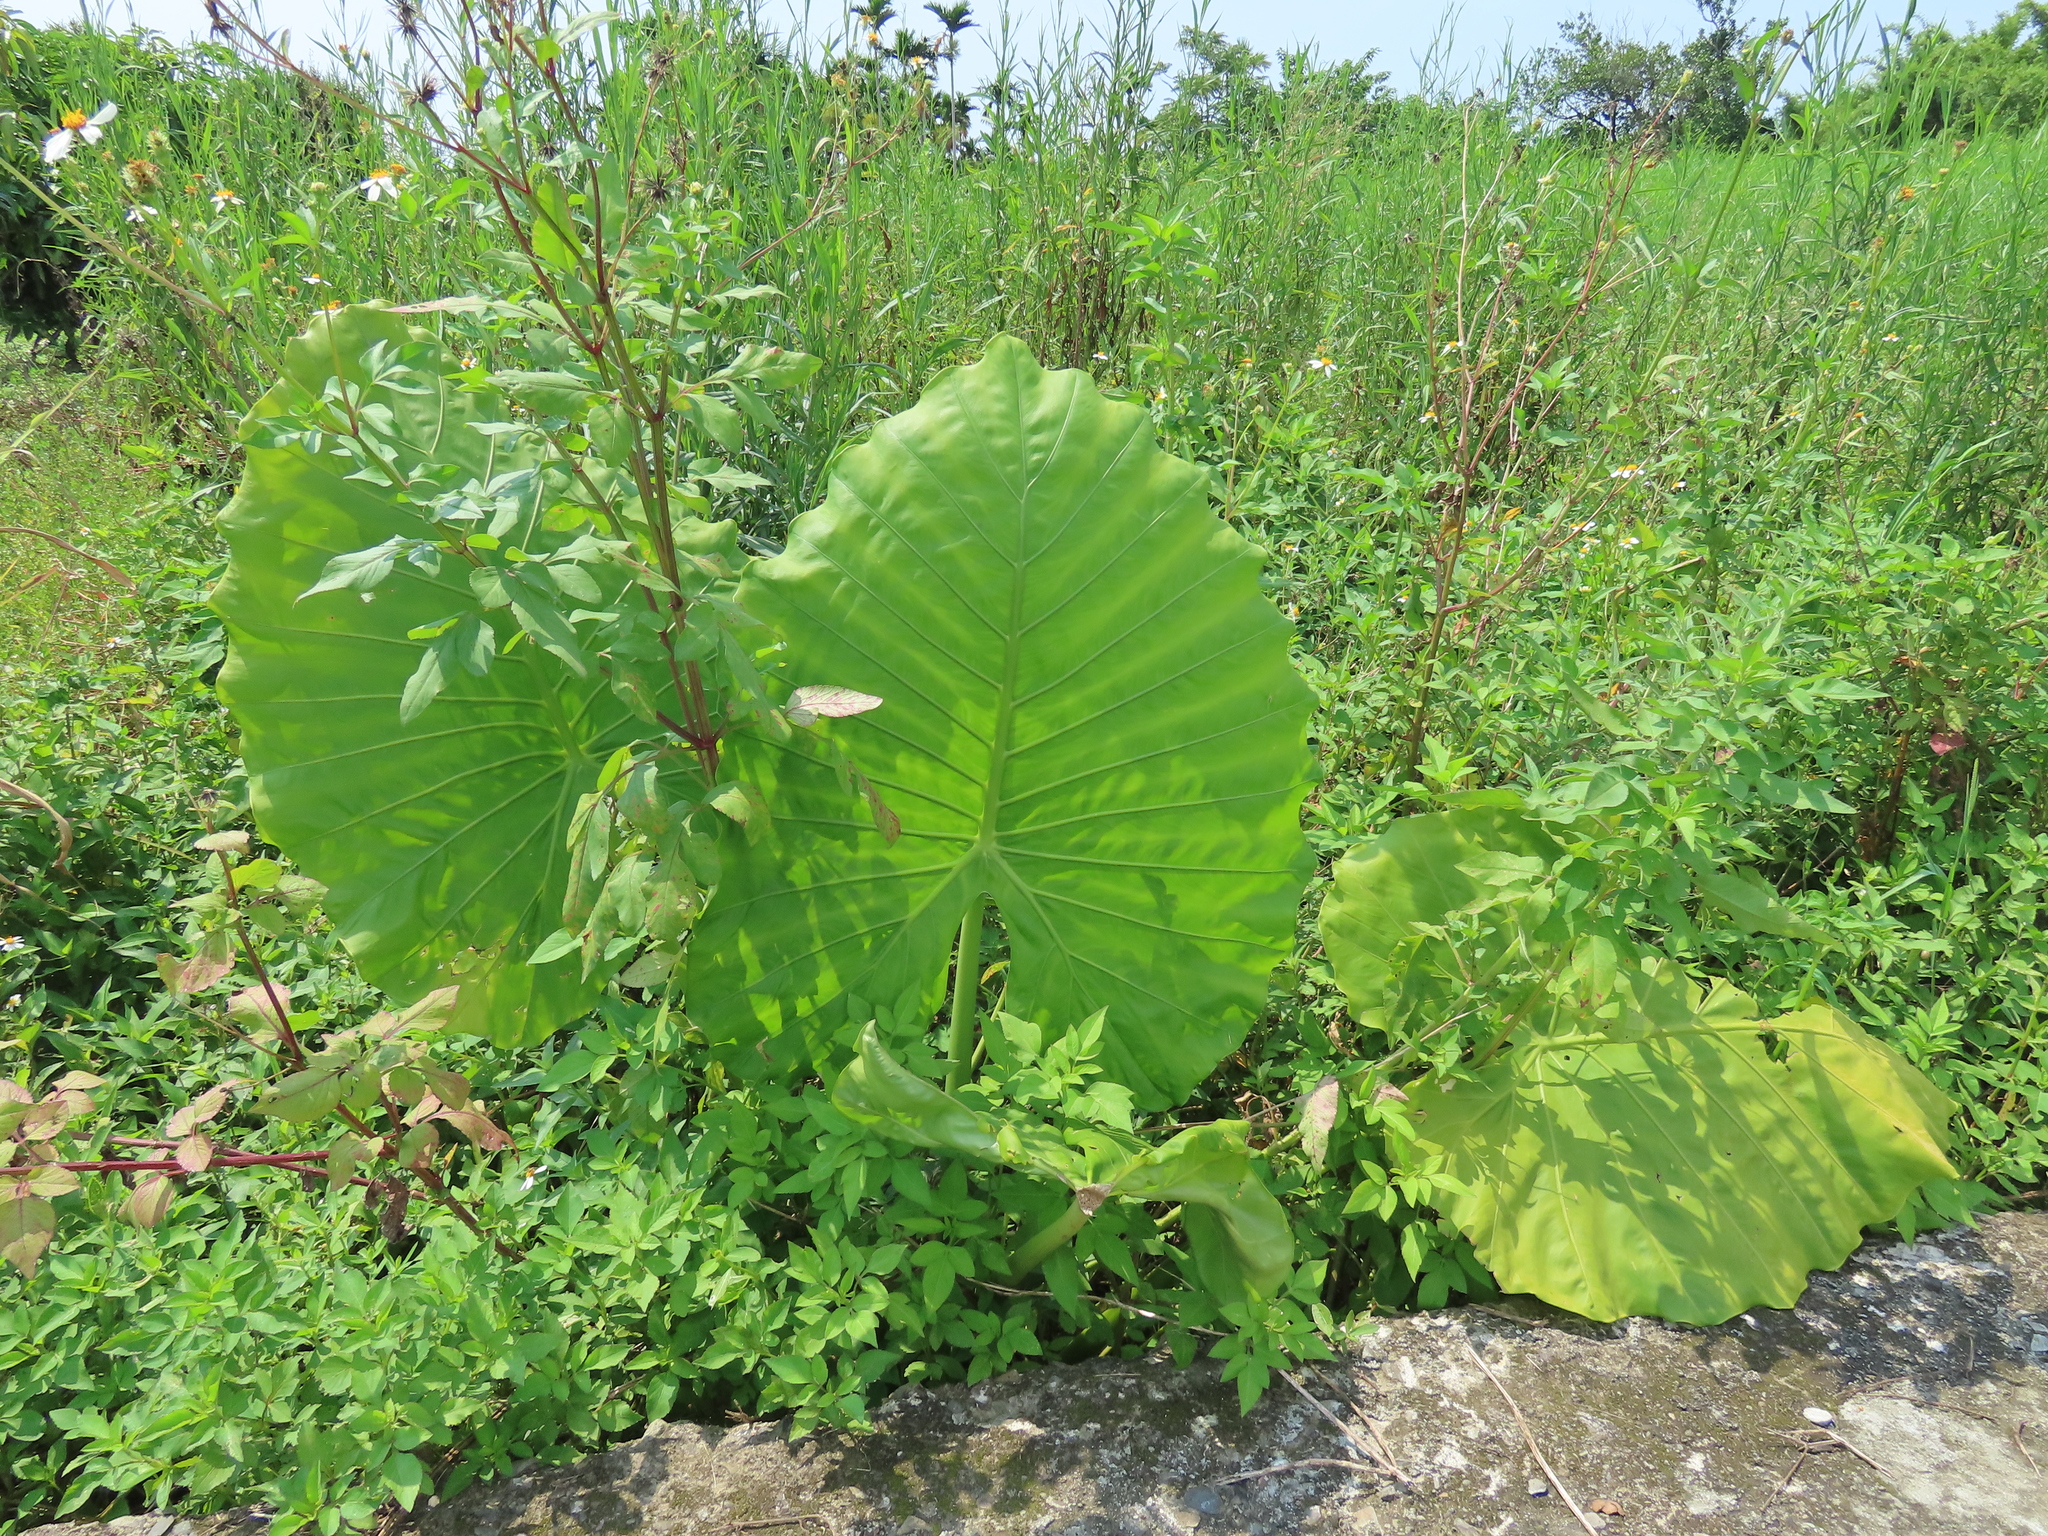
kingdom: Plantae
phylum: Tracheophyta
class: Liliopsida
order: Alismatales
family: Araceae
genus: Alocasia
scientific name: Alocasia odora
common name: Asian taro
